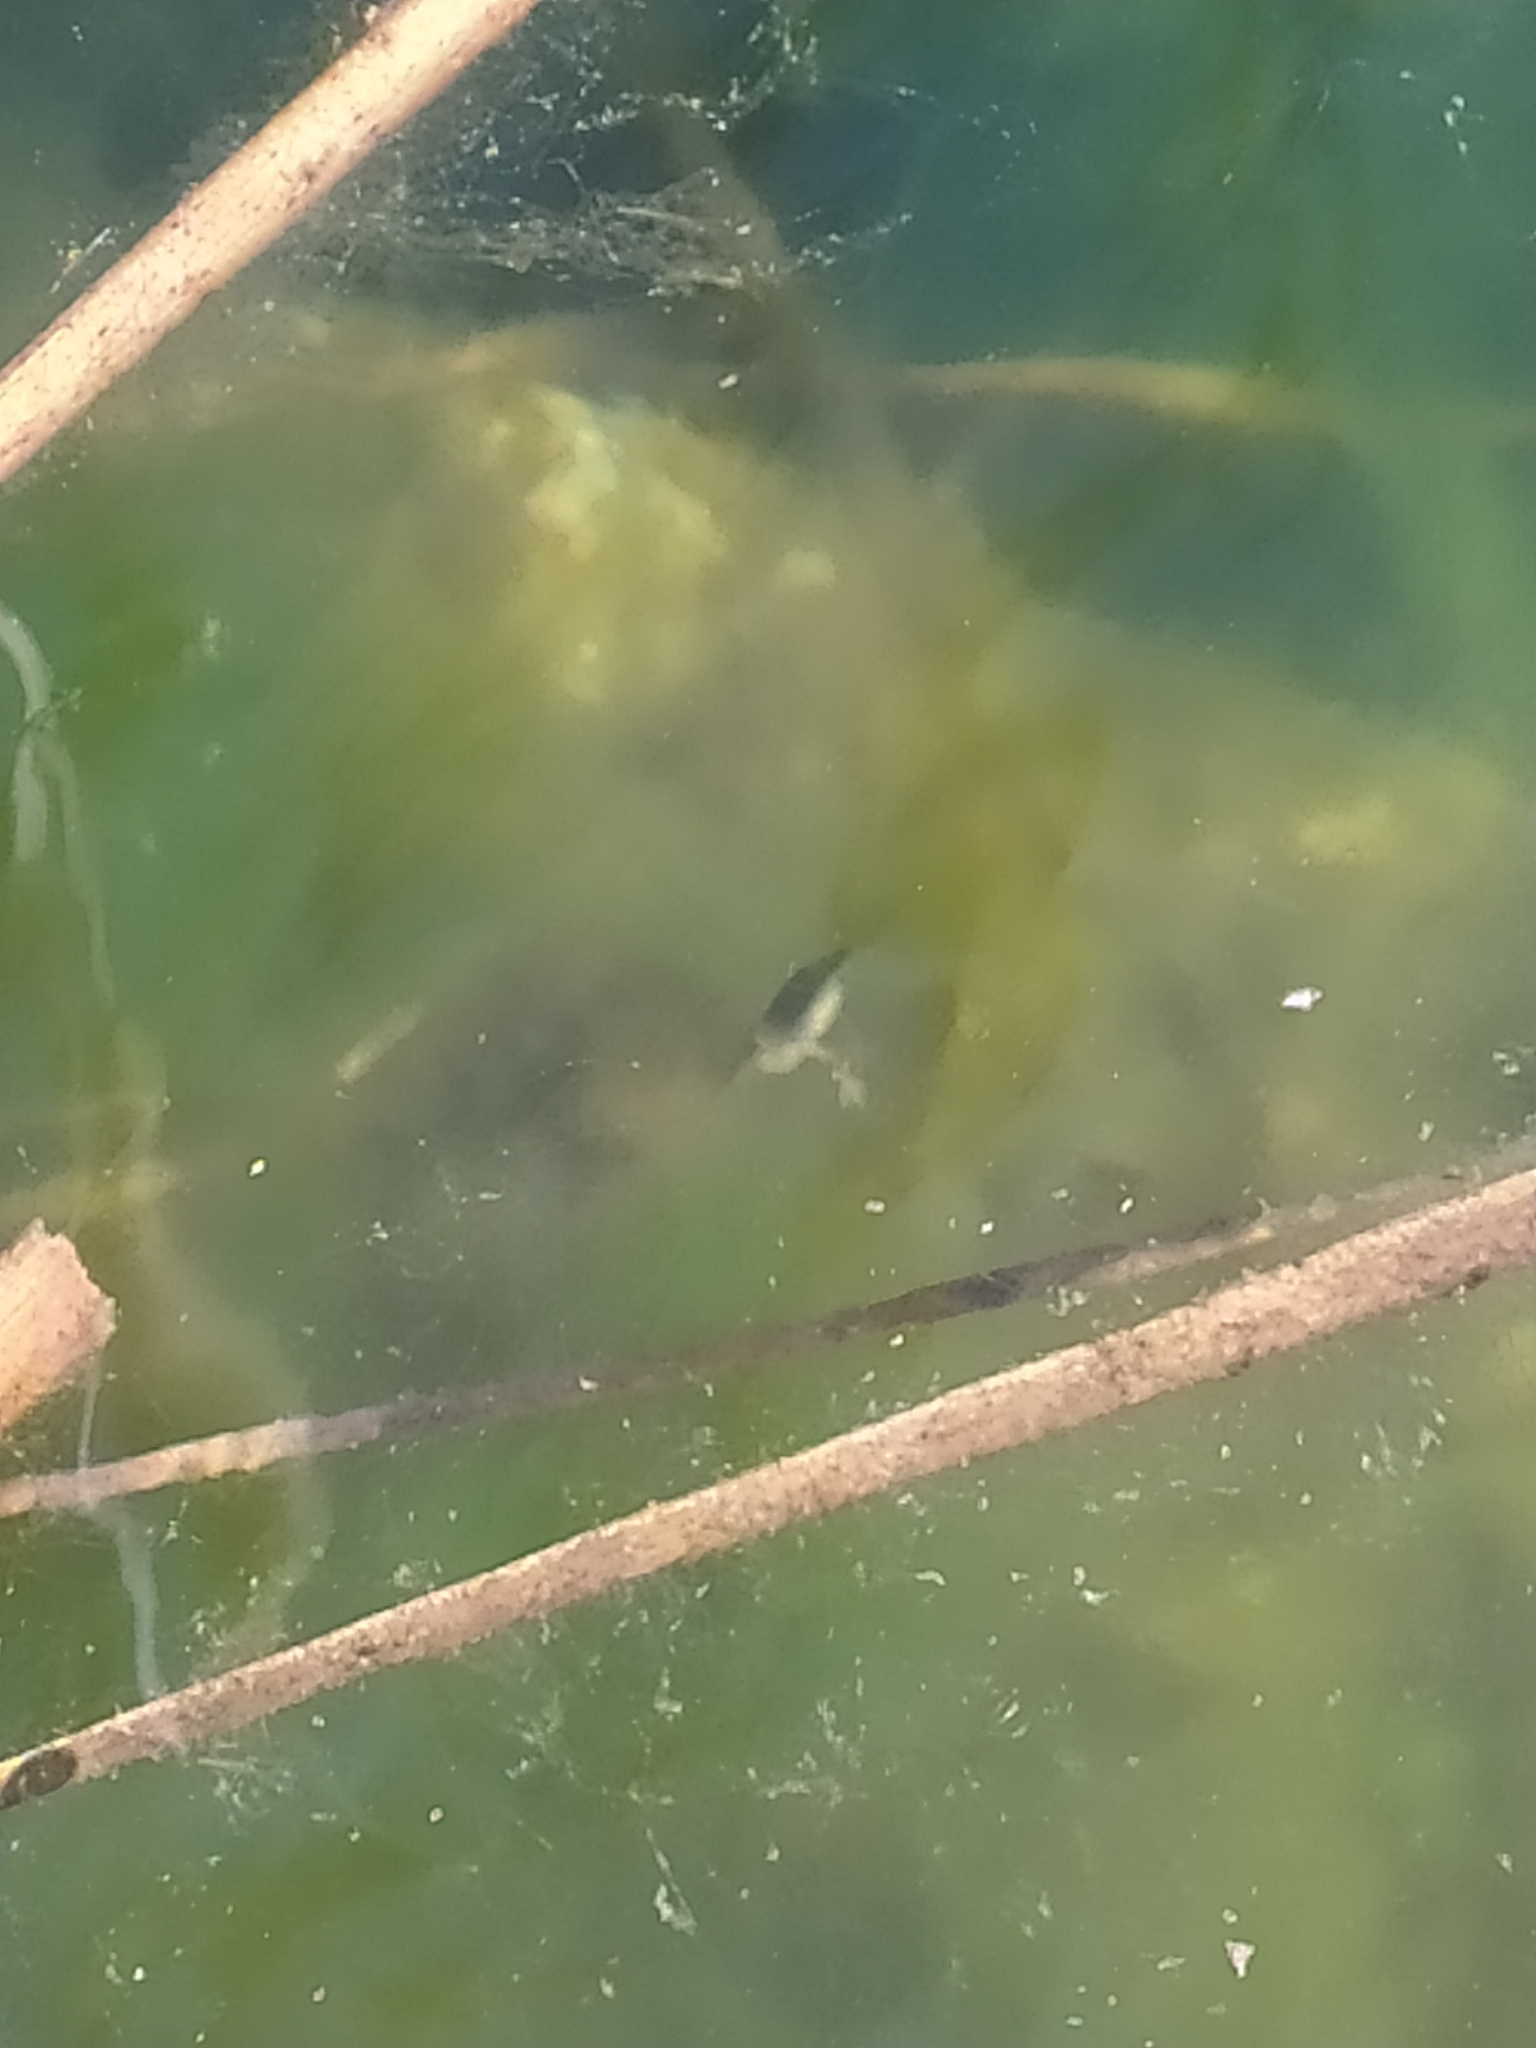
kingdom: Animalia
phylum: Chordata
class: Amphibia
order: Caudata
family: Salamandridae
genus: Lissotriton
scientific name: Lissotriton italicus
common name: Italian newt
